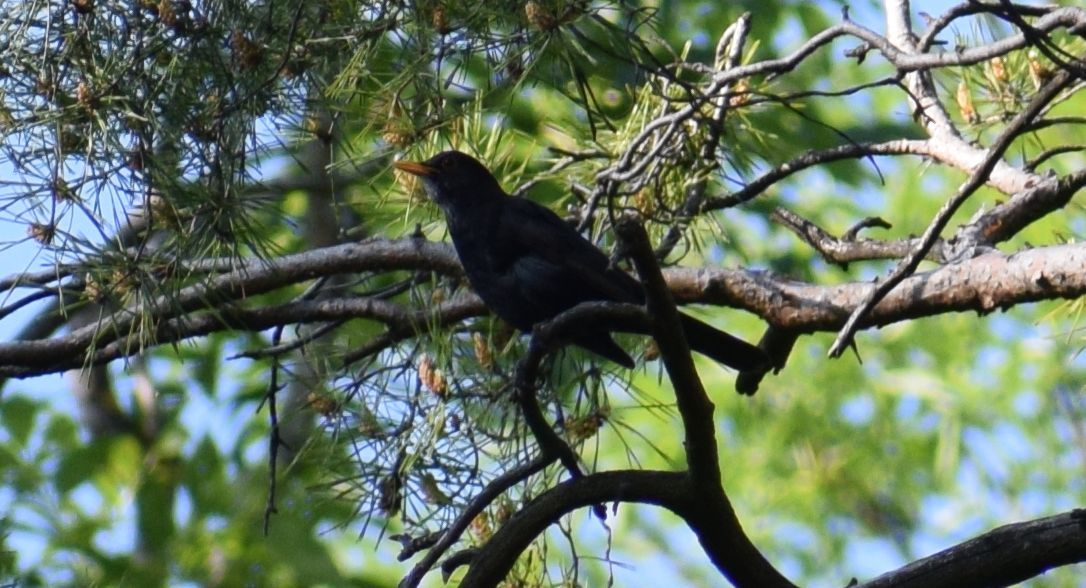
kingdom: Animalia
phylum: Chordata
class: Aves
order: Passeriformes
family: Turdidae
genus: Turdus
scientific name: Turdus merula
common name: Common blackbird
